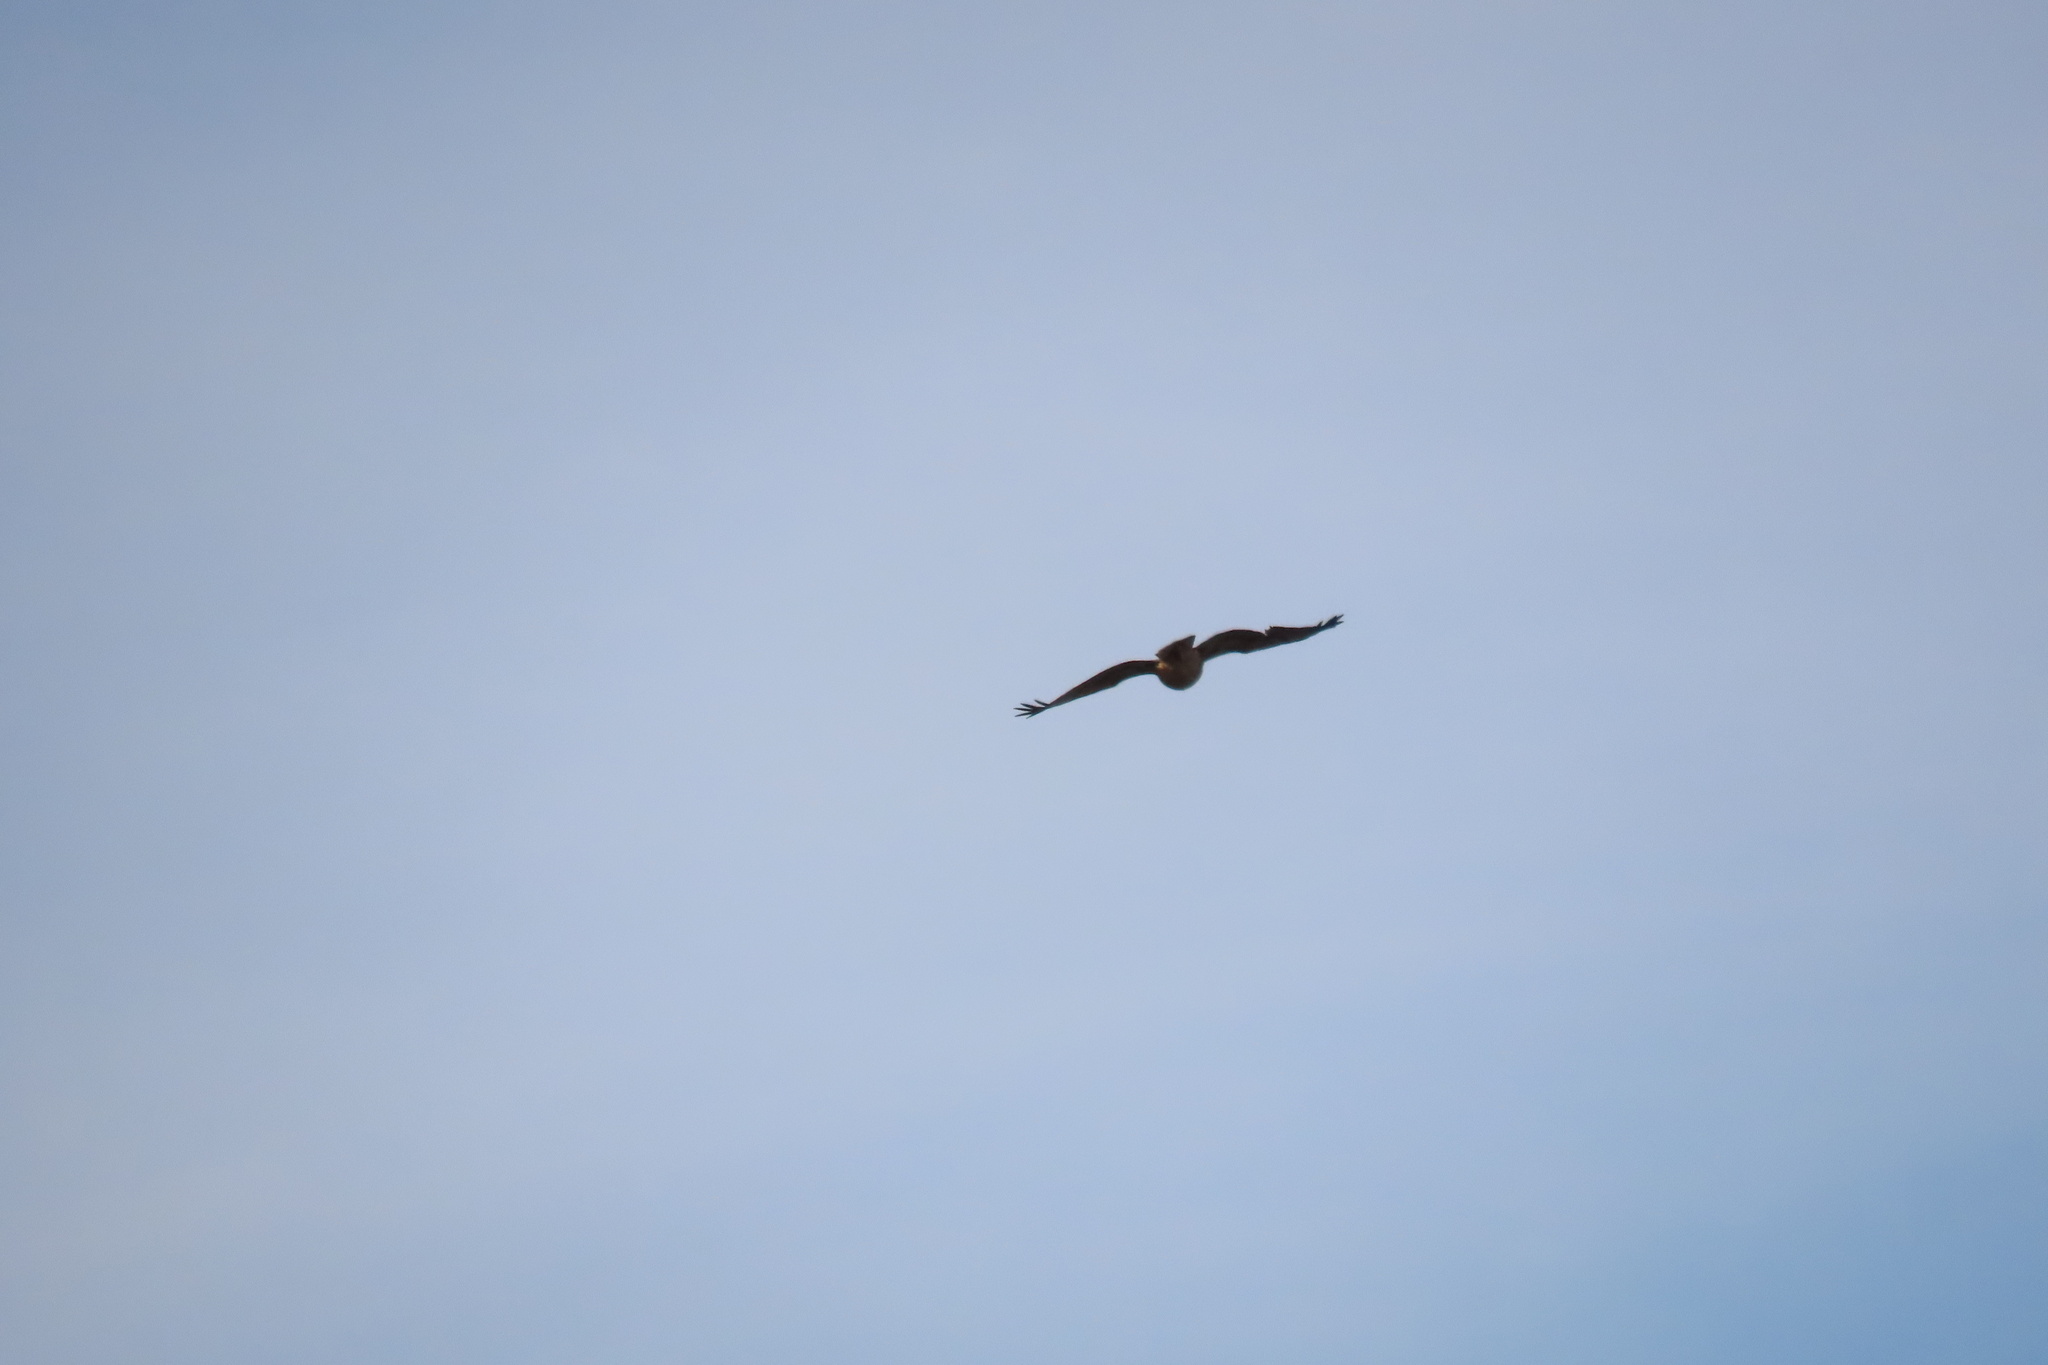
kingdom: Animalia
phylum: Chordata
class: Aves
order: Accipitriformes
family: Accipitridae
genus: Buteo
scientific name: Buteo jamaicensis
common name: Red-tailed hawk
